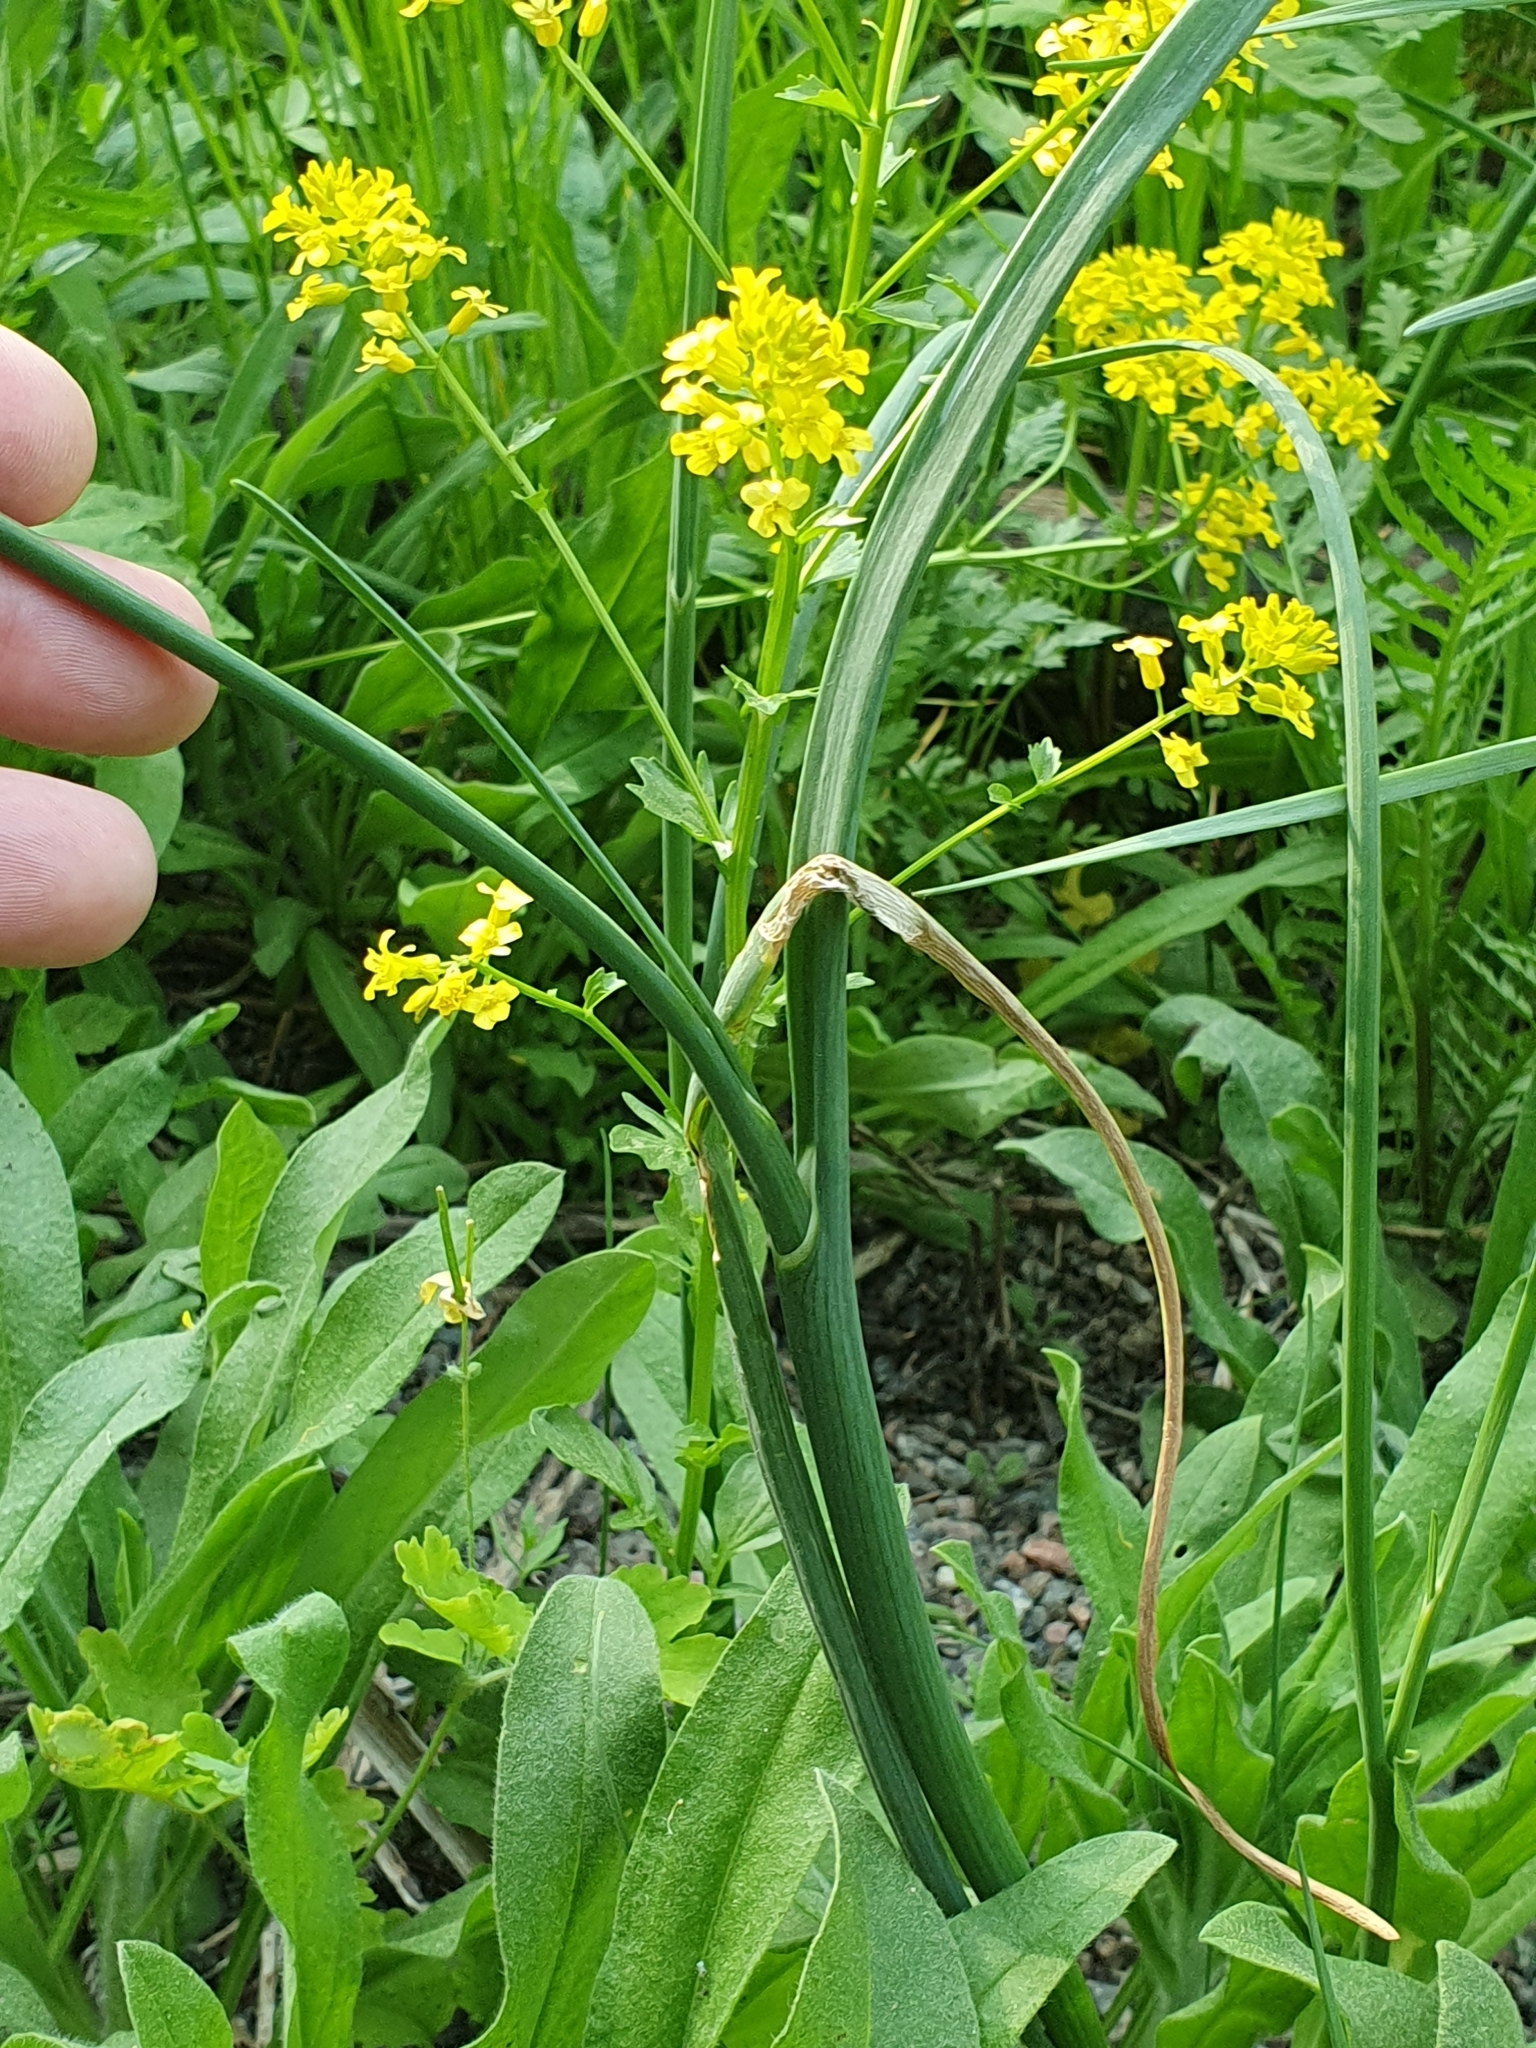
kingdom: Plantae
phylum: Tracheophyta
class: Liliopsida
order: Asparagales
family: Amaryllidaceae
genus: Allium
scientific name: Allium oleraceum
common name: Field garlic
